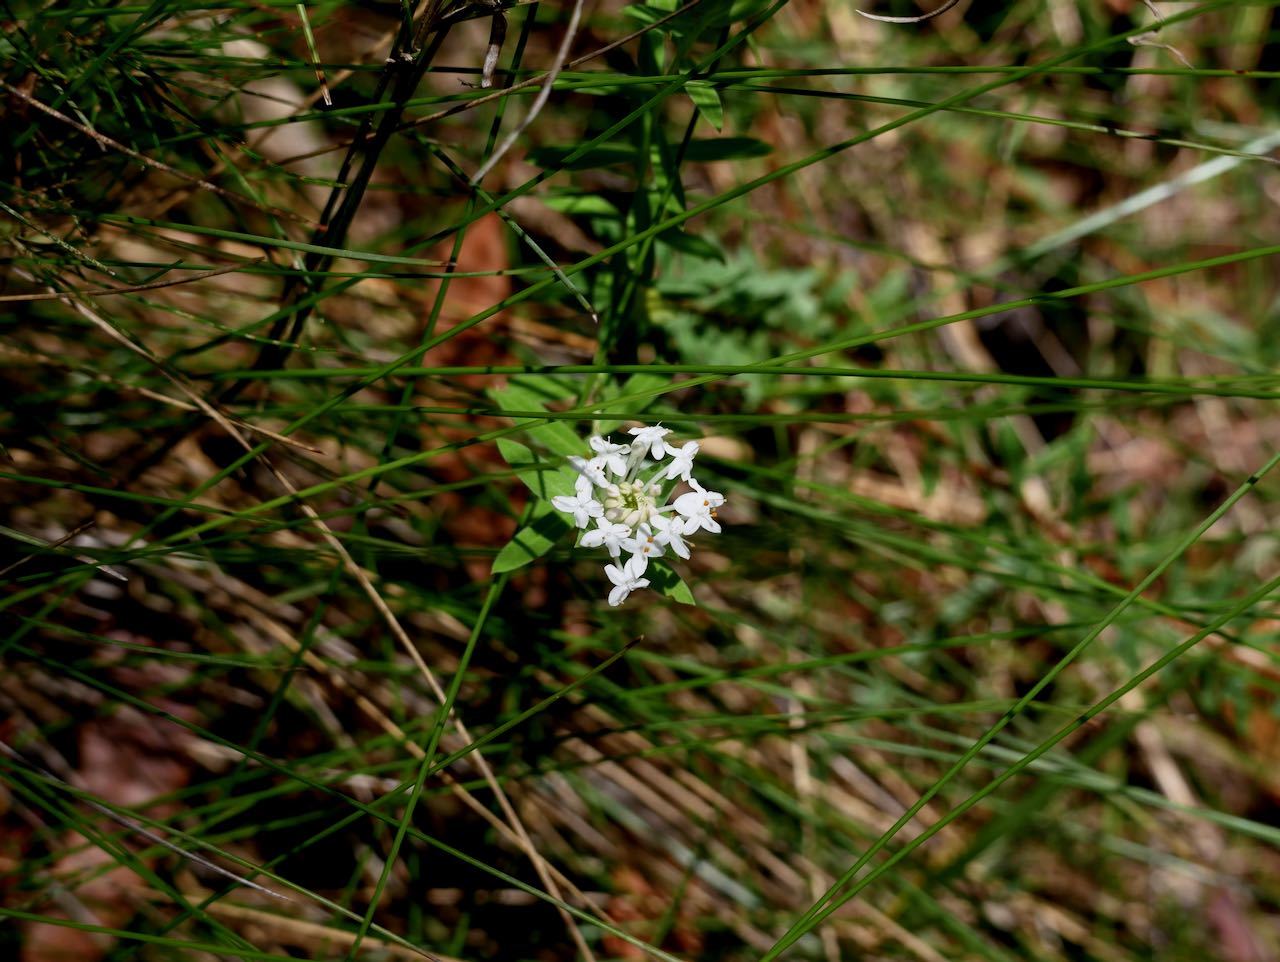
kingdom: Plantae
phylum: Tracheophyta
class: Magnoliopsida
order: Malvales
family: Thymelaeaceae
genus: Pimelea
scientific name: Pimelea linifolia
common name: Queen-of-the-bush
